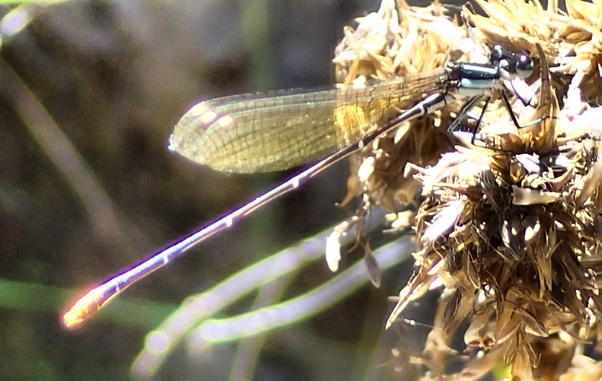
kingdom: Animalia
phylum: Arthropoda
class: Insecta
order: Odonata
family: Platycnemididae
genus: Allocnemis
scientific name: Allocnemis leucosticta
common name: Goldtail
